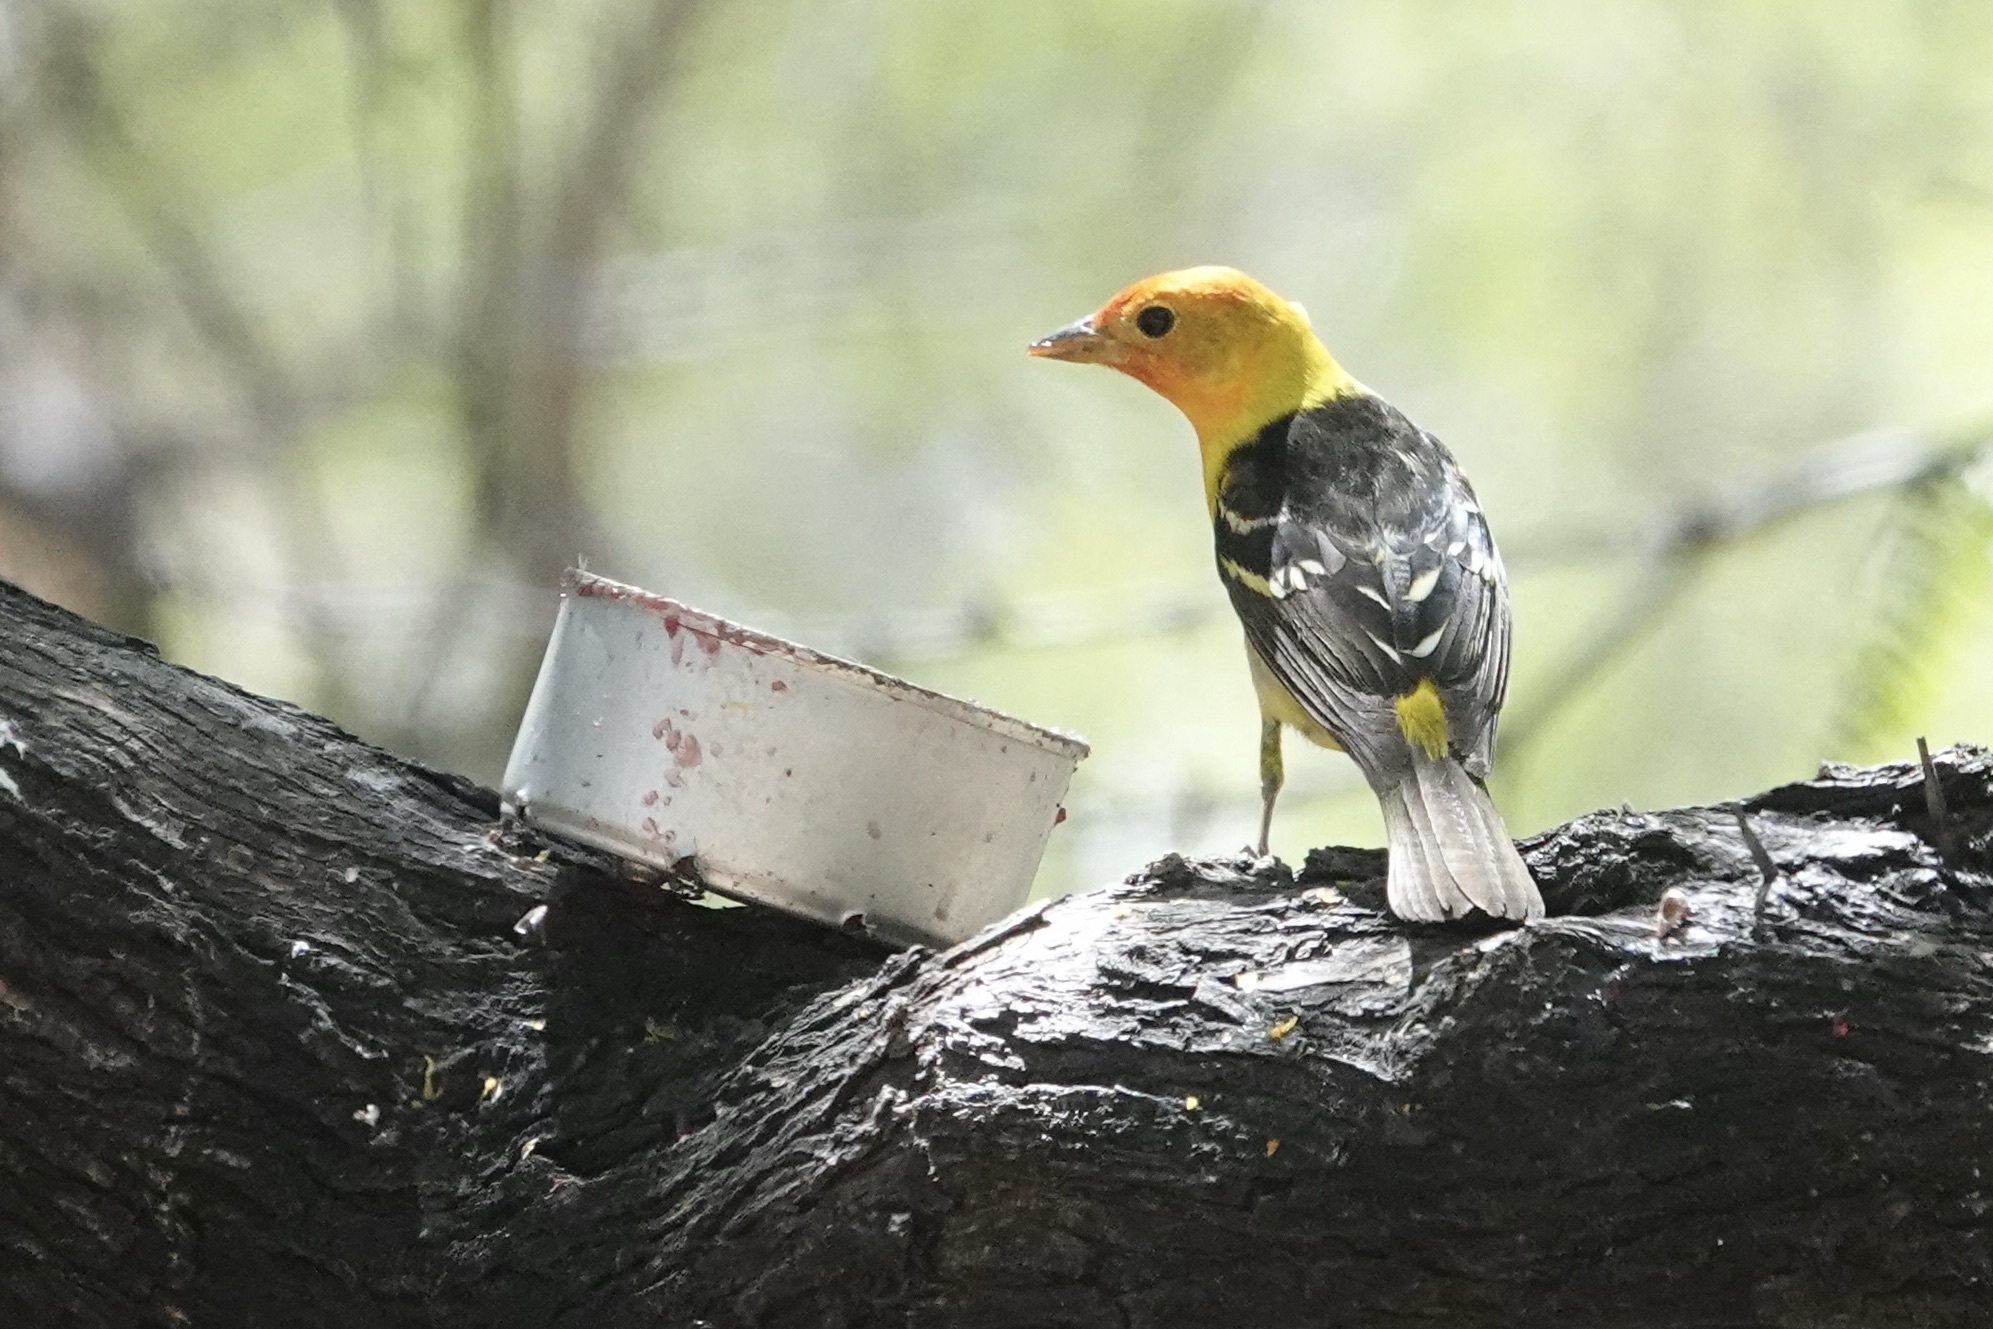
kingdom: Animalia
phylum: Chordata
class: Aves
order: Passeriformes
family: Cardinalidae
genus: Piranga
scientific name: Piranga ludoviciana
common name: Western tanager
